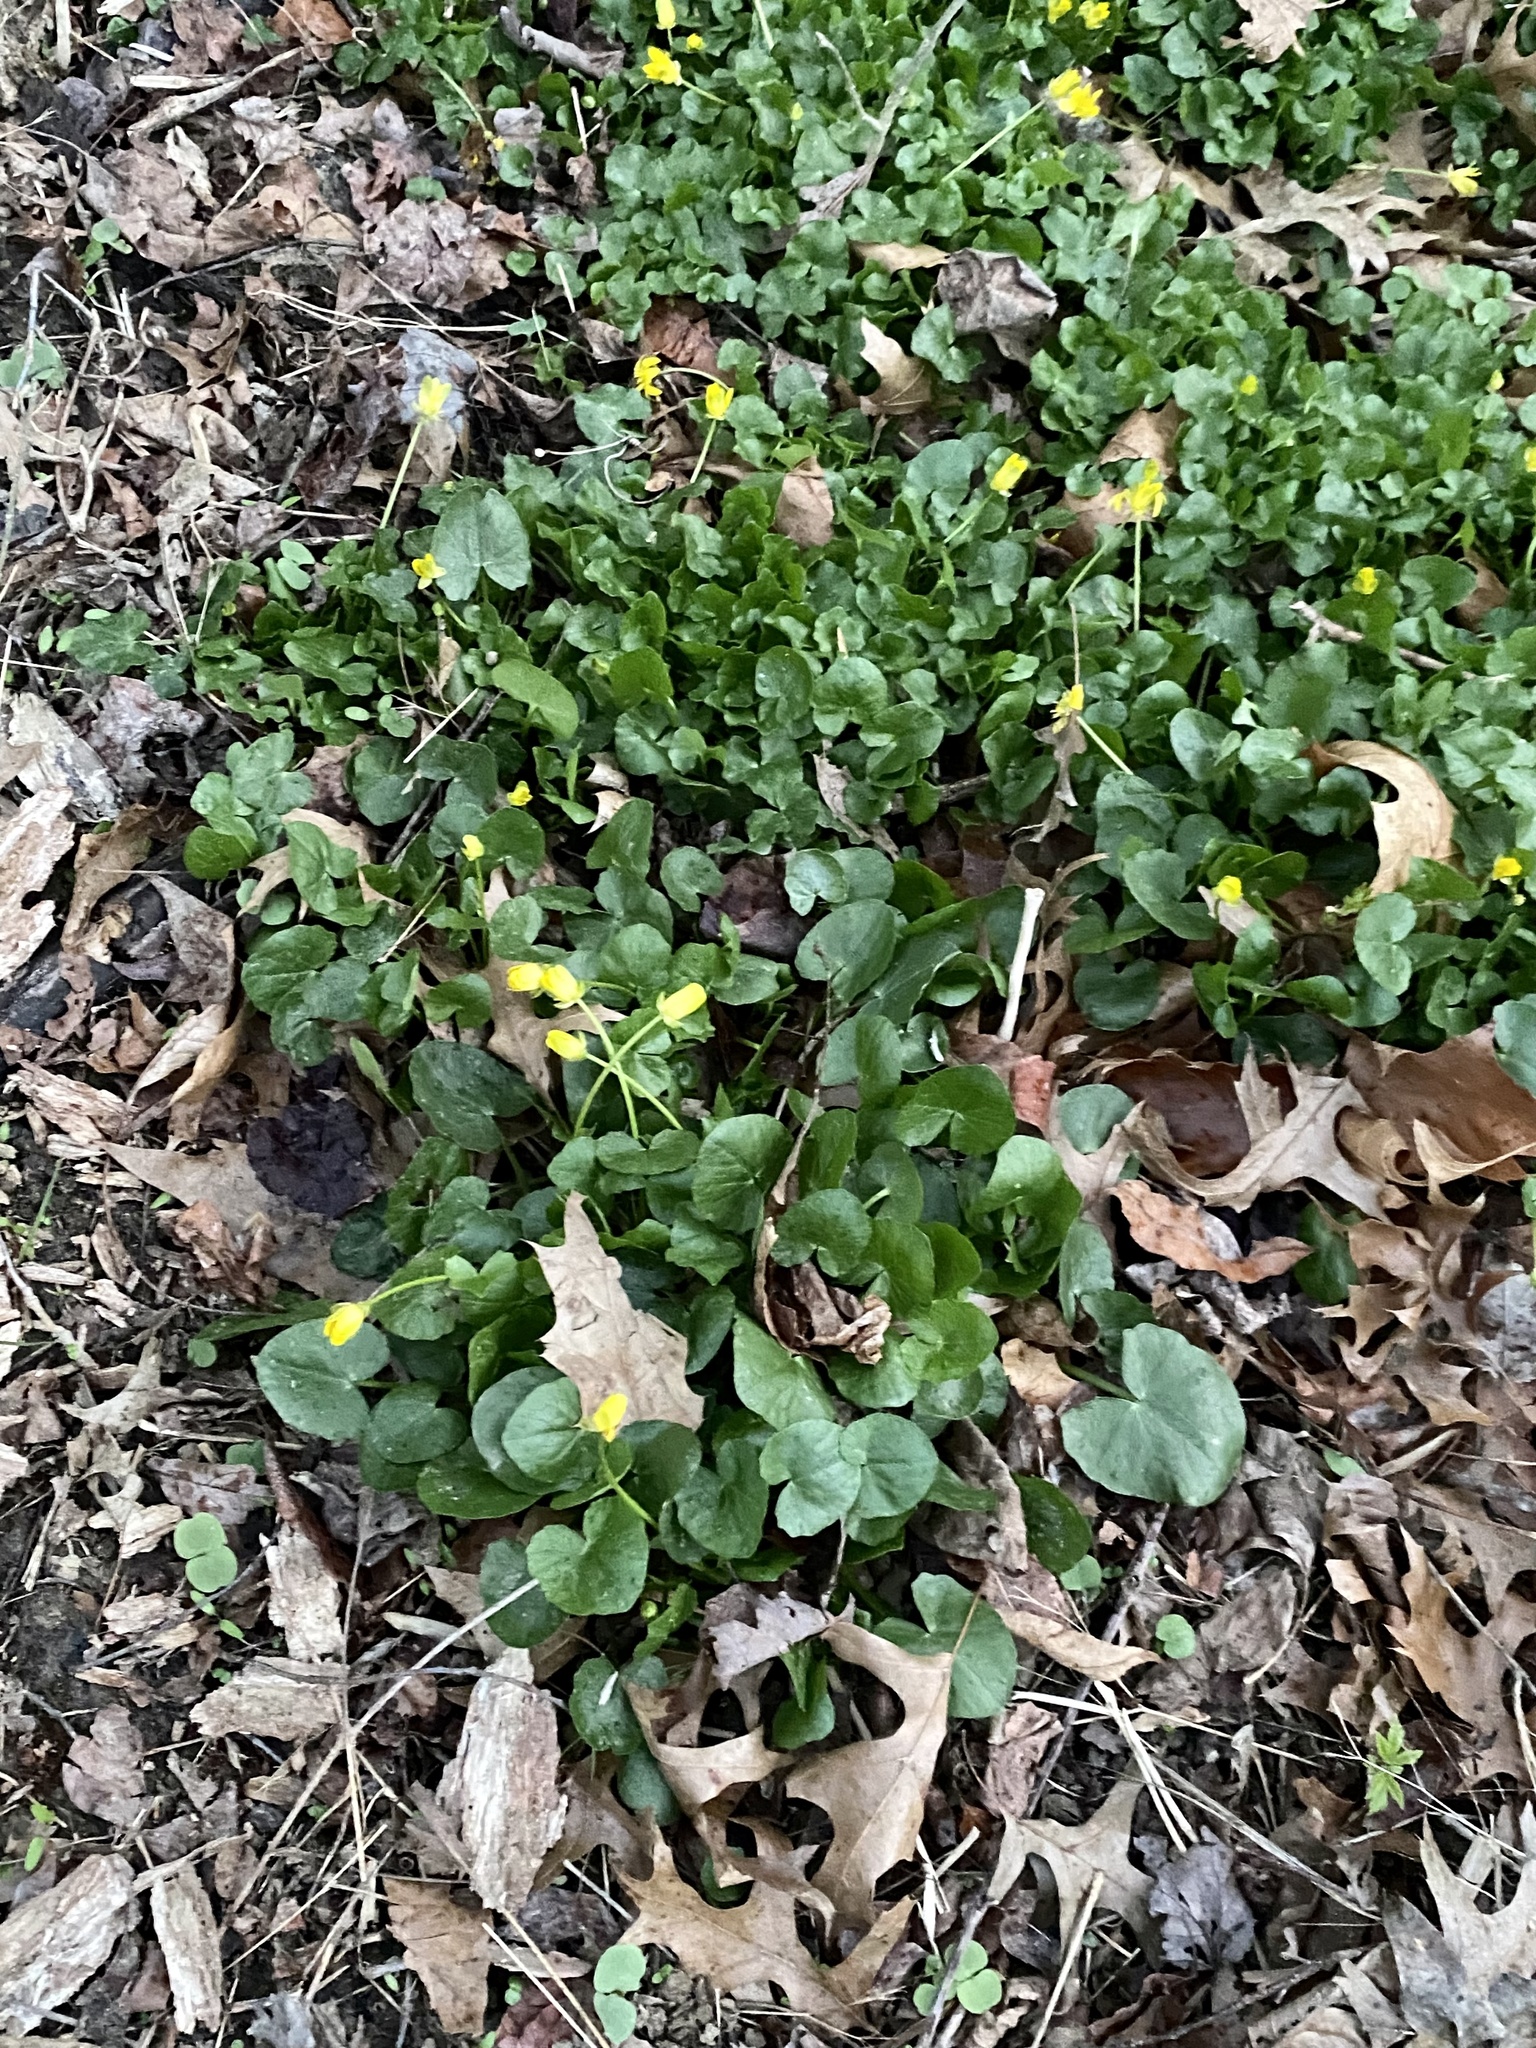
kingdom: Plantae
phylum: Tracheophyta
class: Magnoliopsida
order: Ranunculales
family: Ranunculaceae
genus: Ficaria
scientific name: Ficaria verna
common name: Lesser celandine
